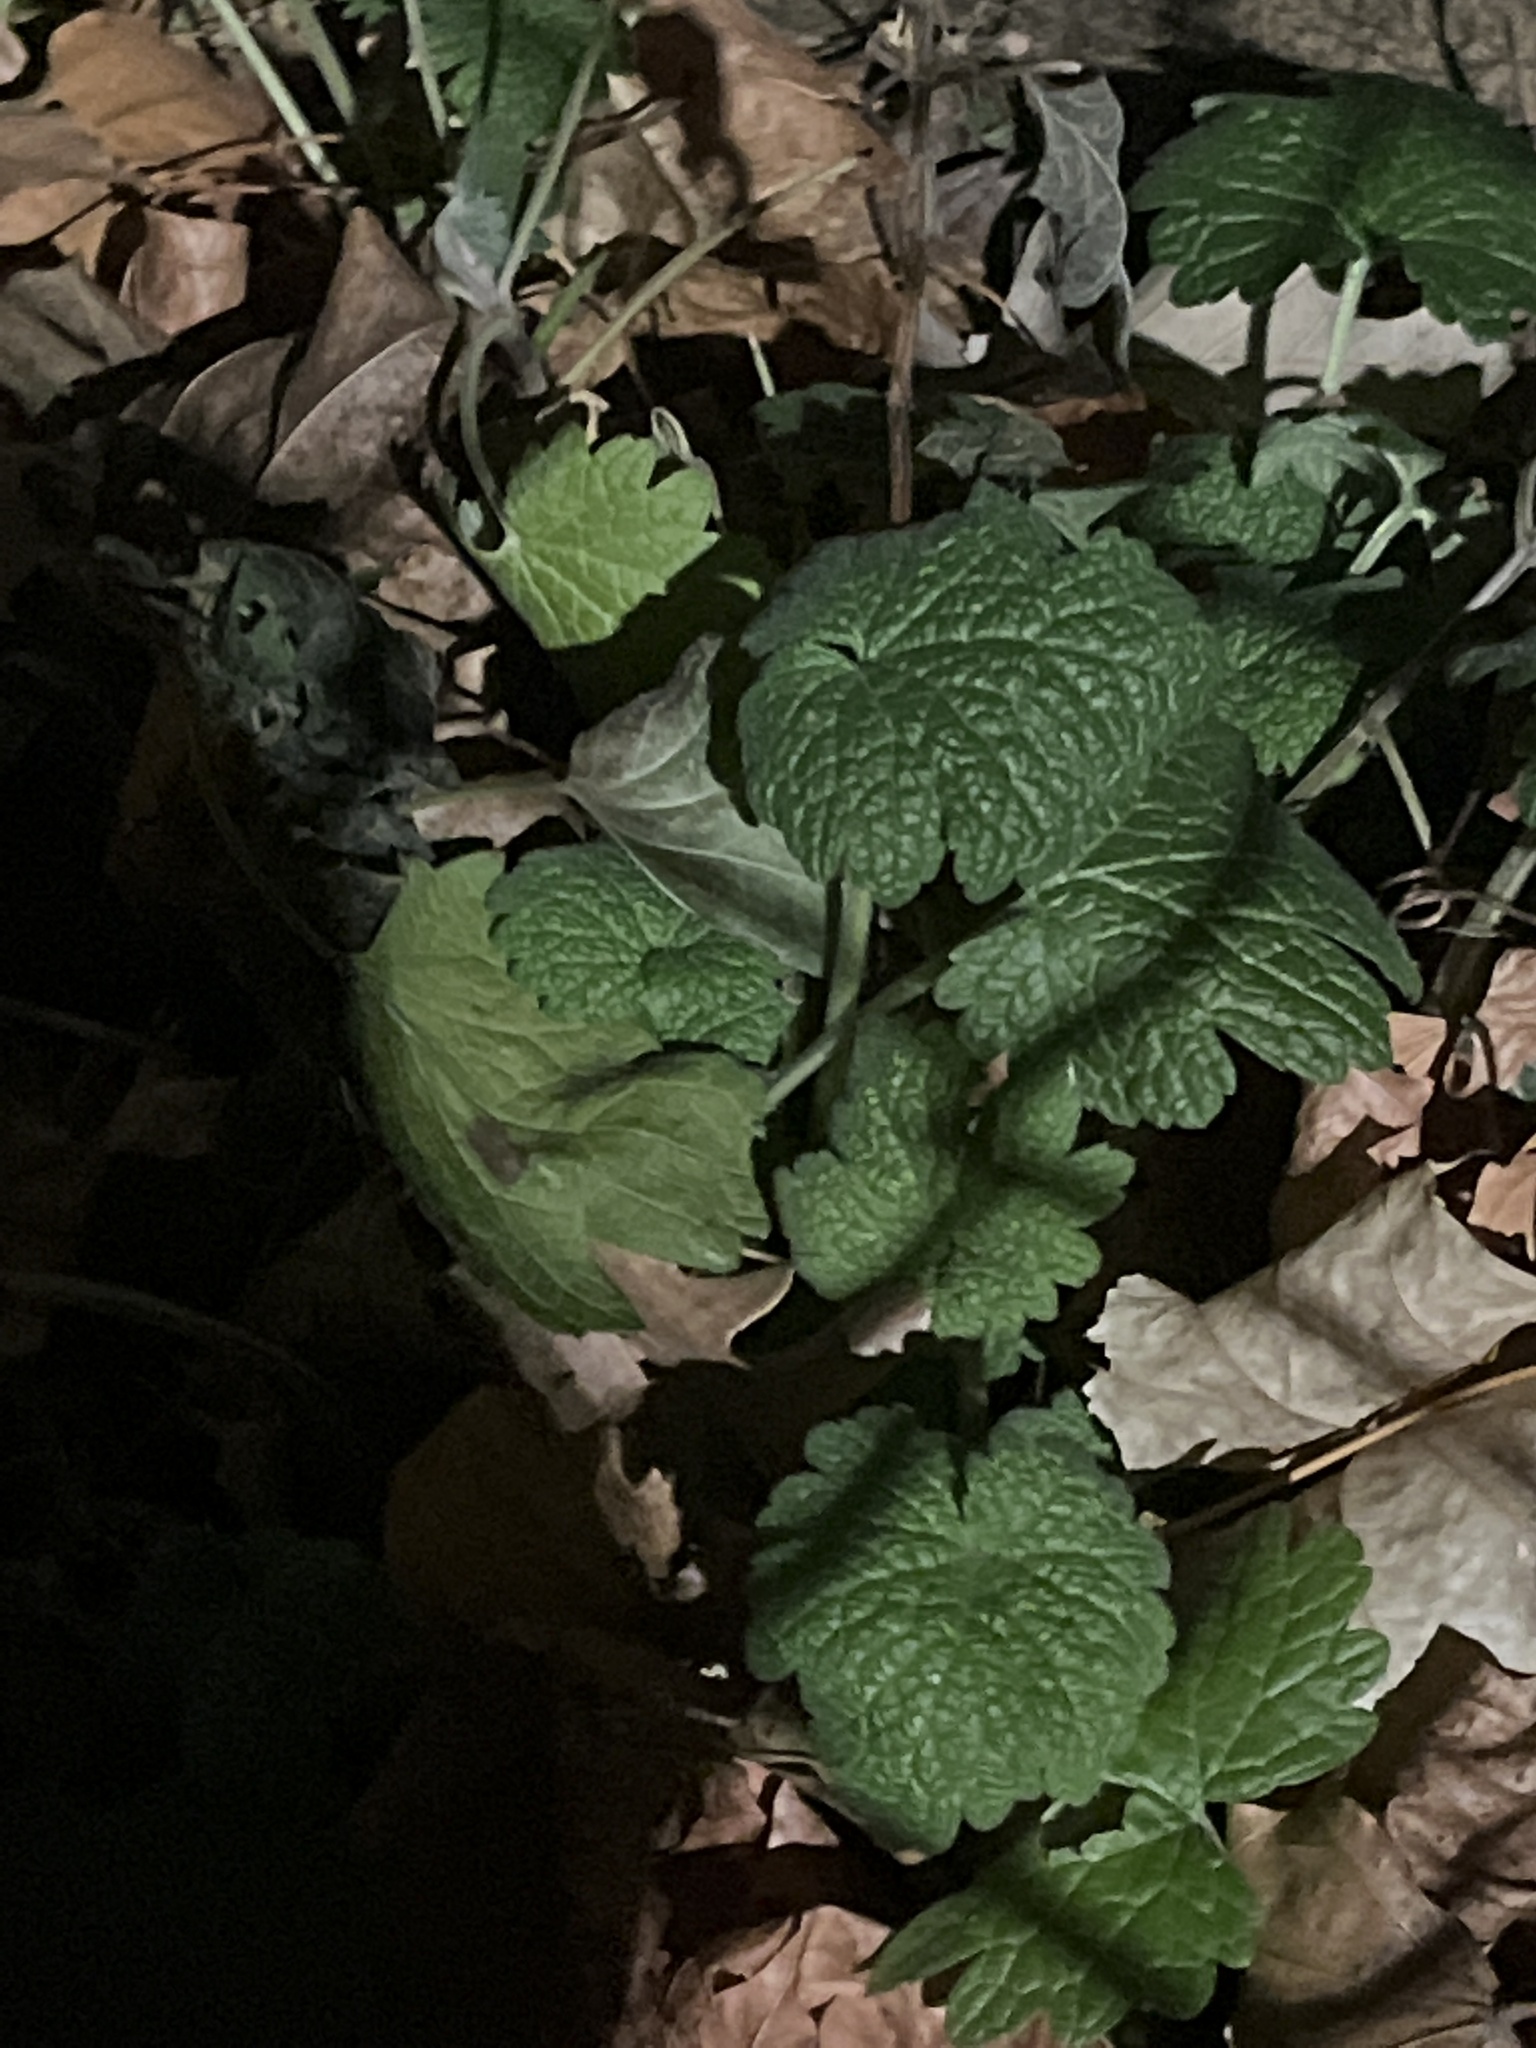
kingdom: Plantae
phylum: Tracheophyta
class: Magnoliopsida
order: Lamiales
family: Lamiaceae
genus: Leonurus
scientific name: Leonurus cardiaca
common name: Motherwort
